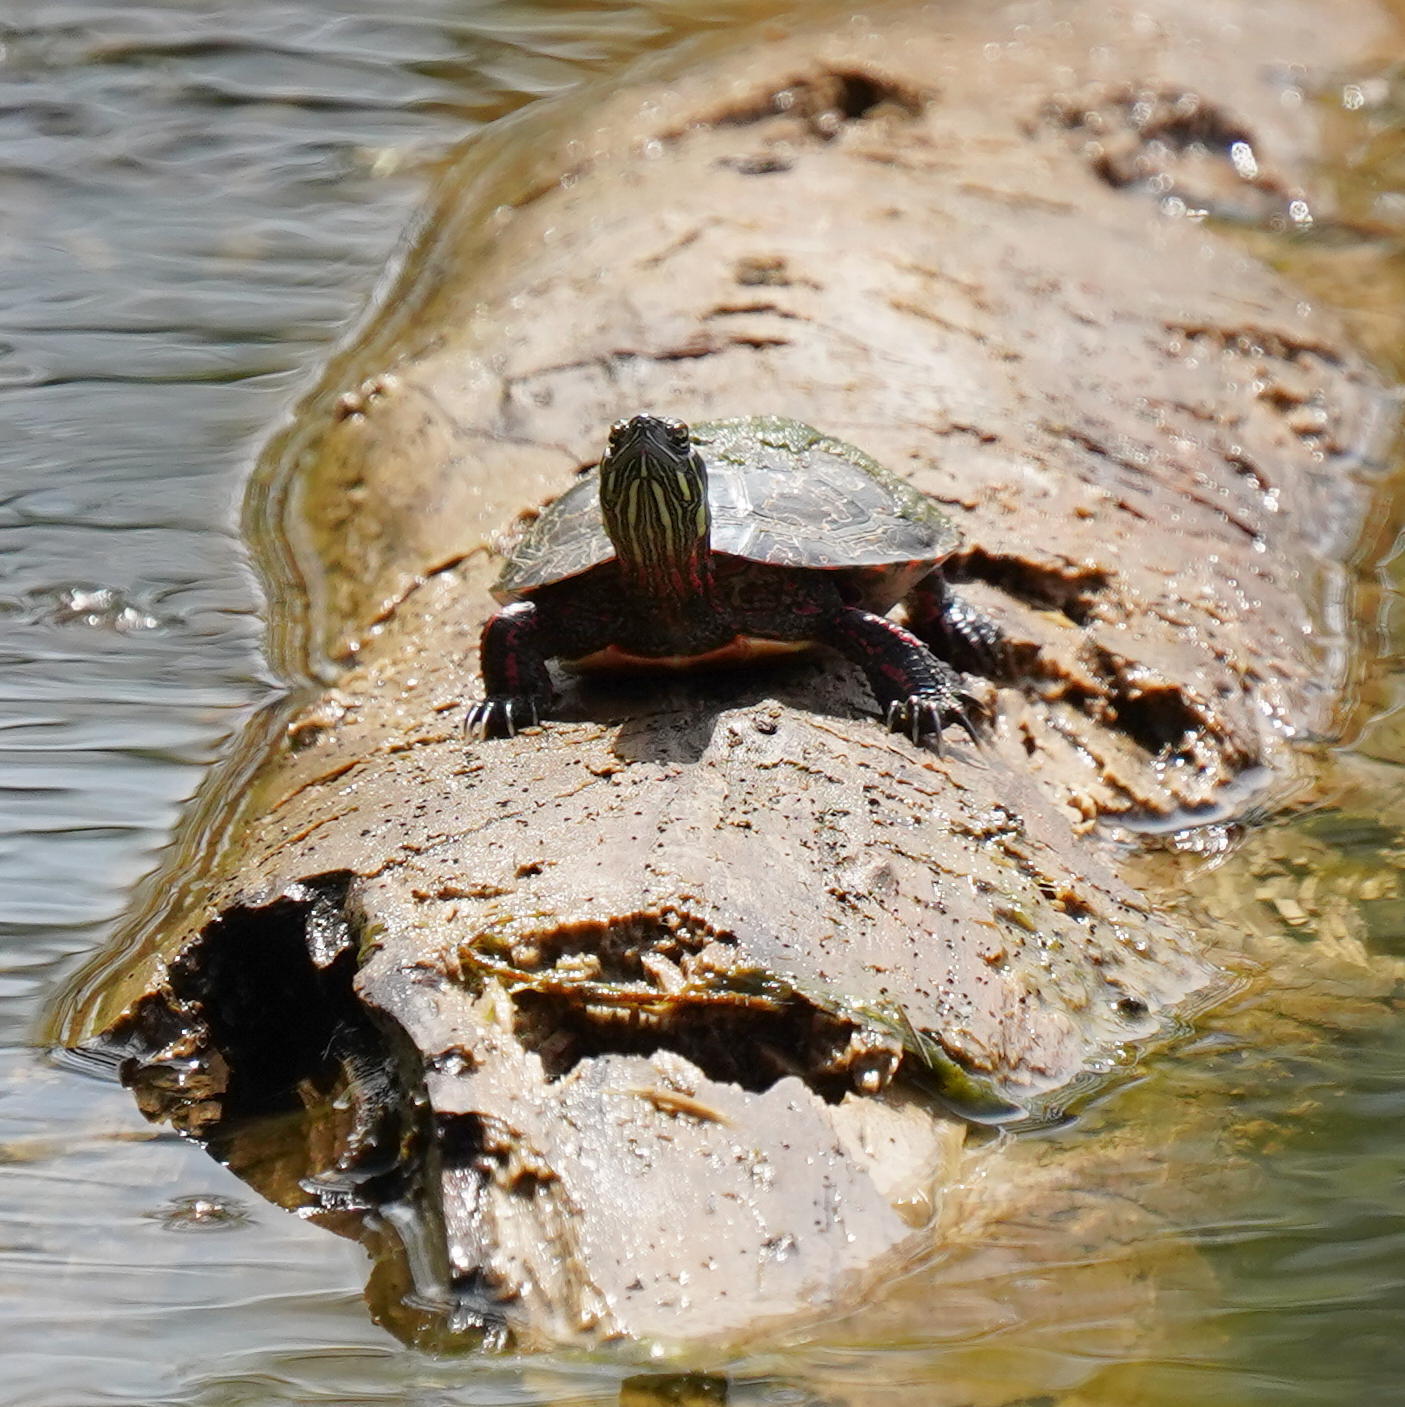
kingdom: Animalia
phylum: Chordata
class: Testudines
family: Emydidae
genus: Chrysemys
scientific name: Chrysemys picta
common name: Painted turtle
